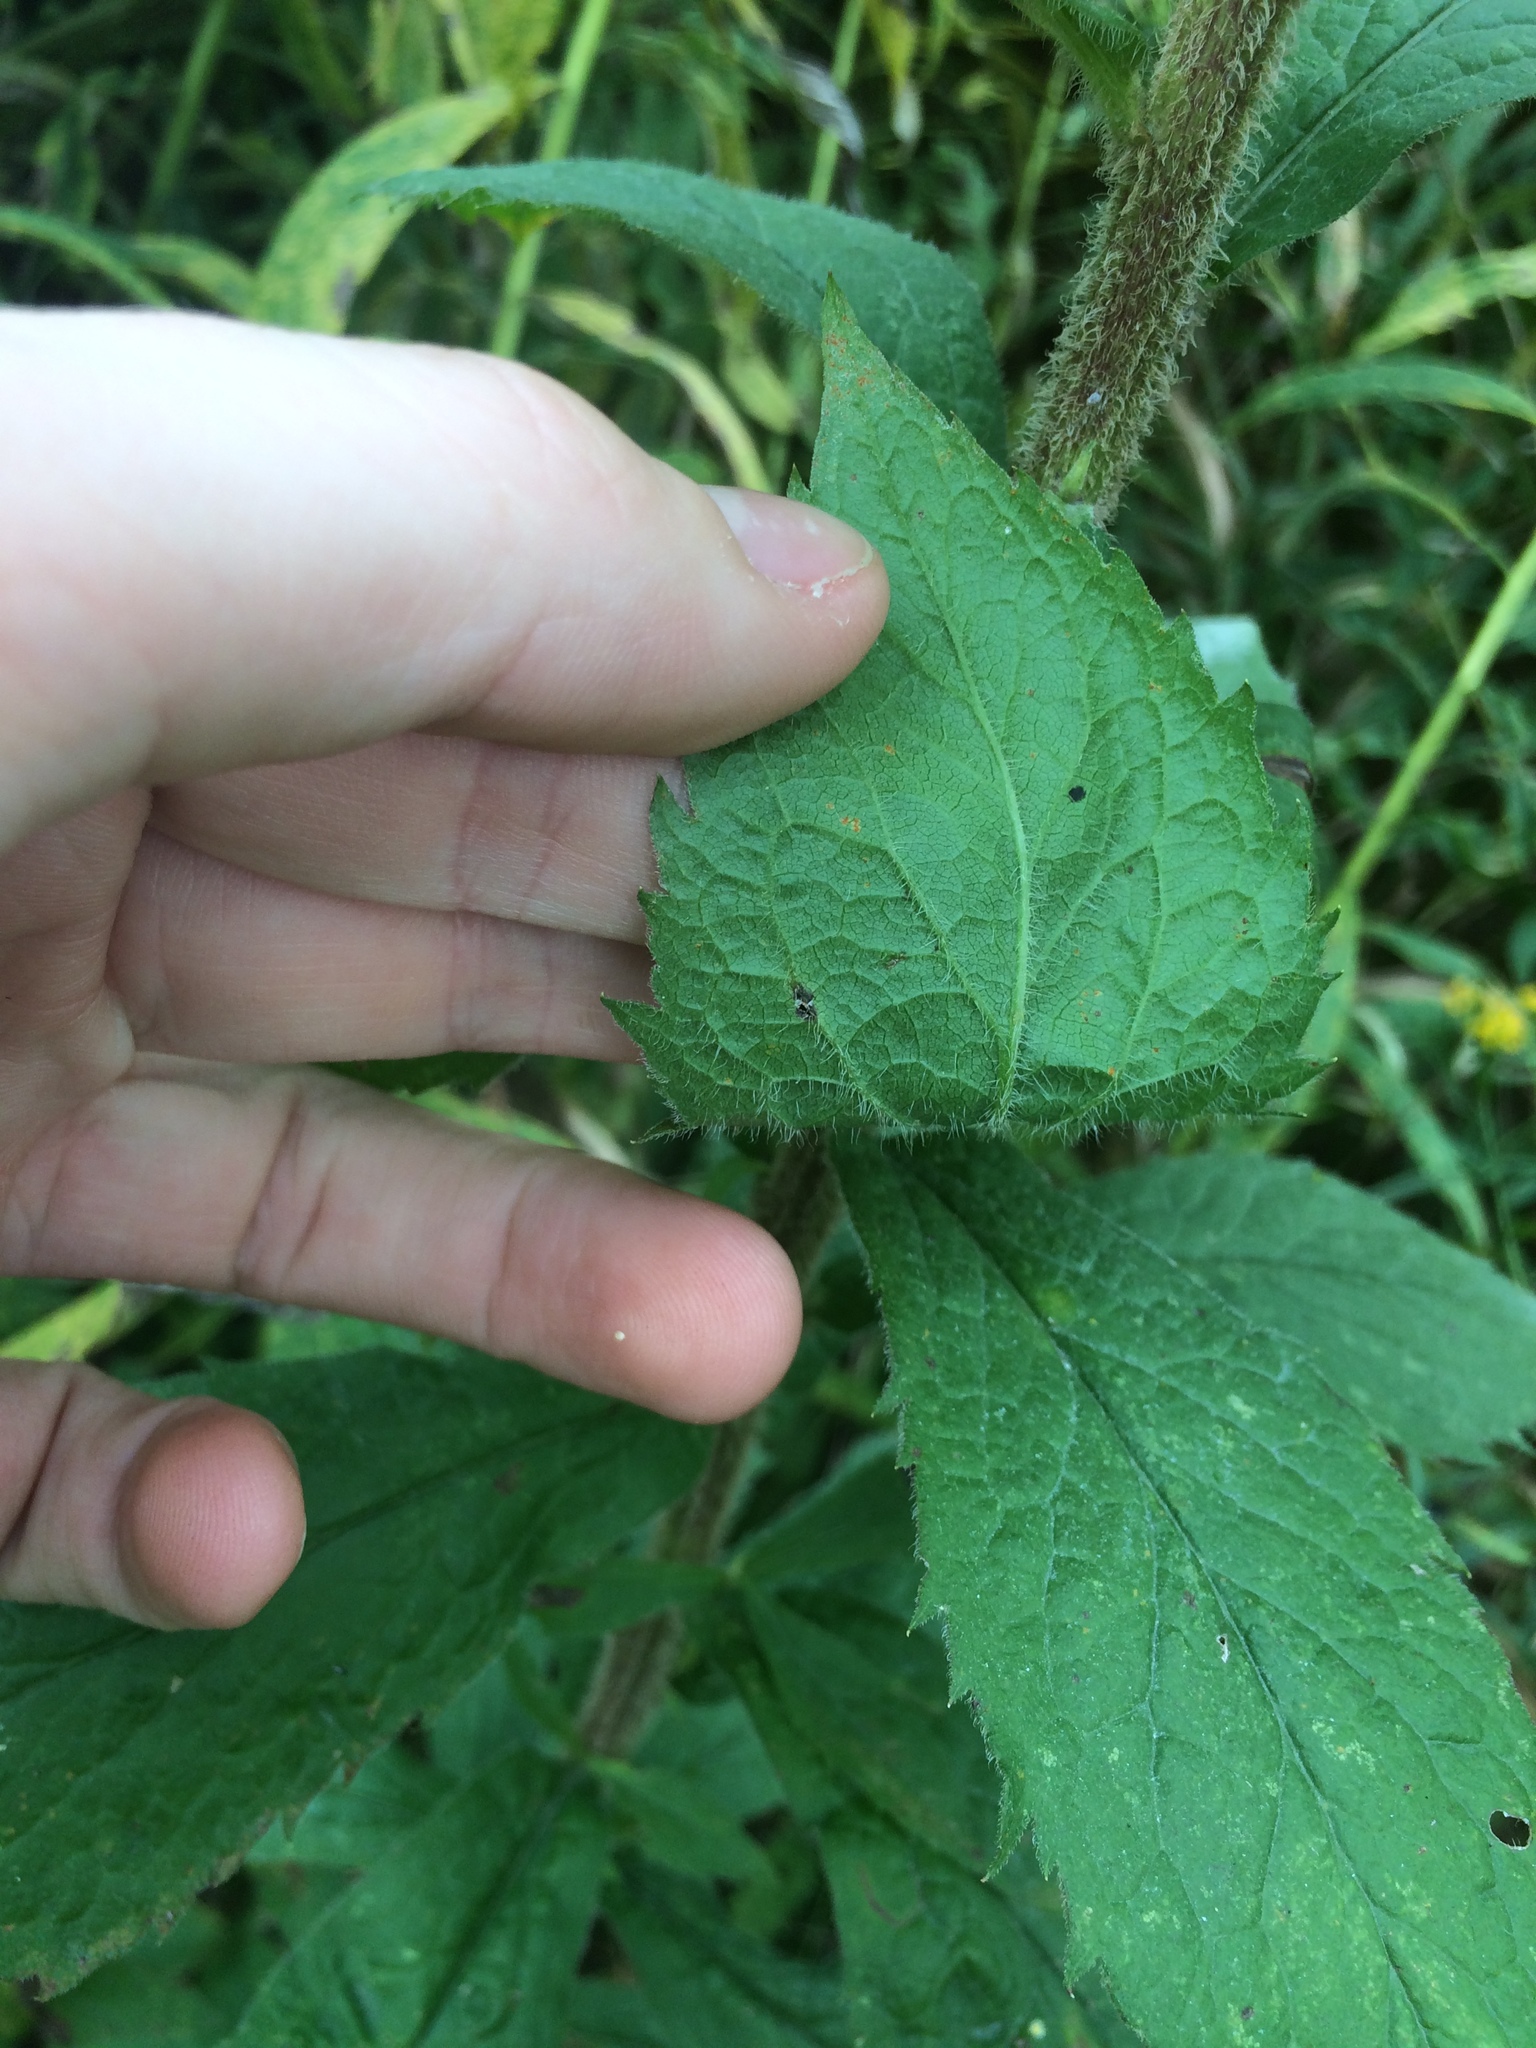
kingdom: Plantae
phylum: Tracheophyta
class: Magnoliopsida
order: Asterales
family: Asteraceae
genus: Solidago
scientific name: Solidago rugosa
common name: Rough-stemmed goldenrod
